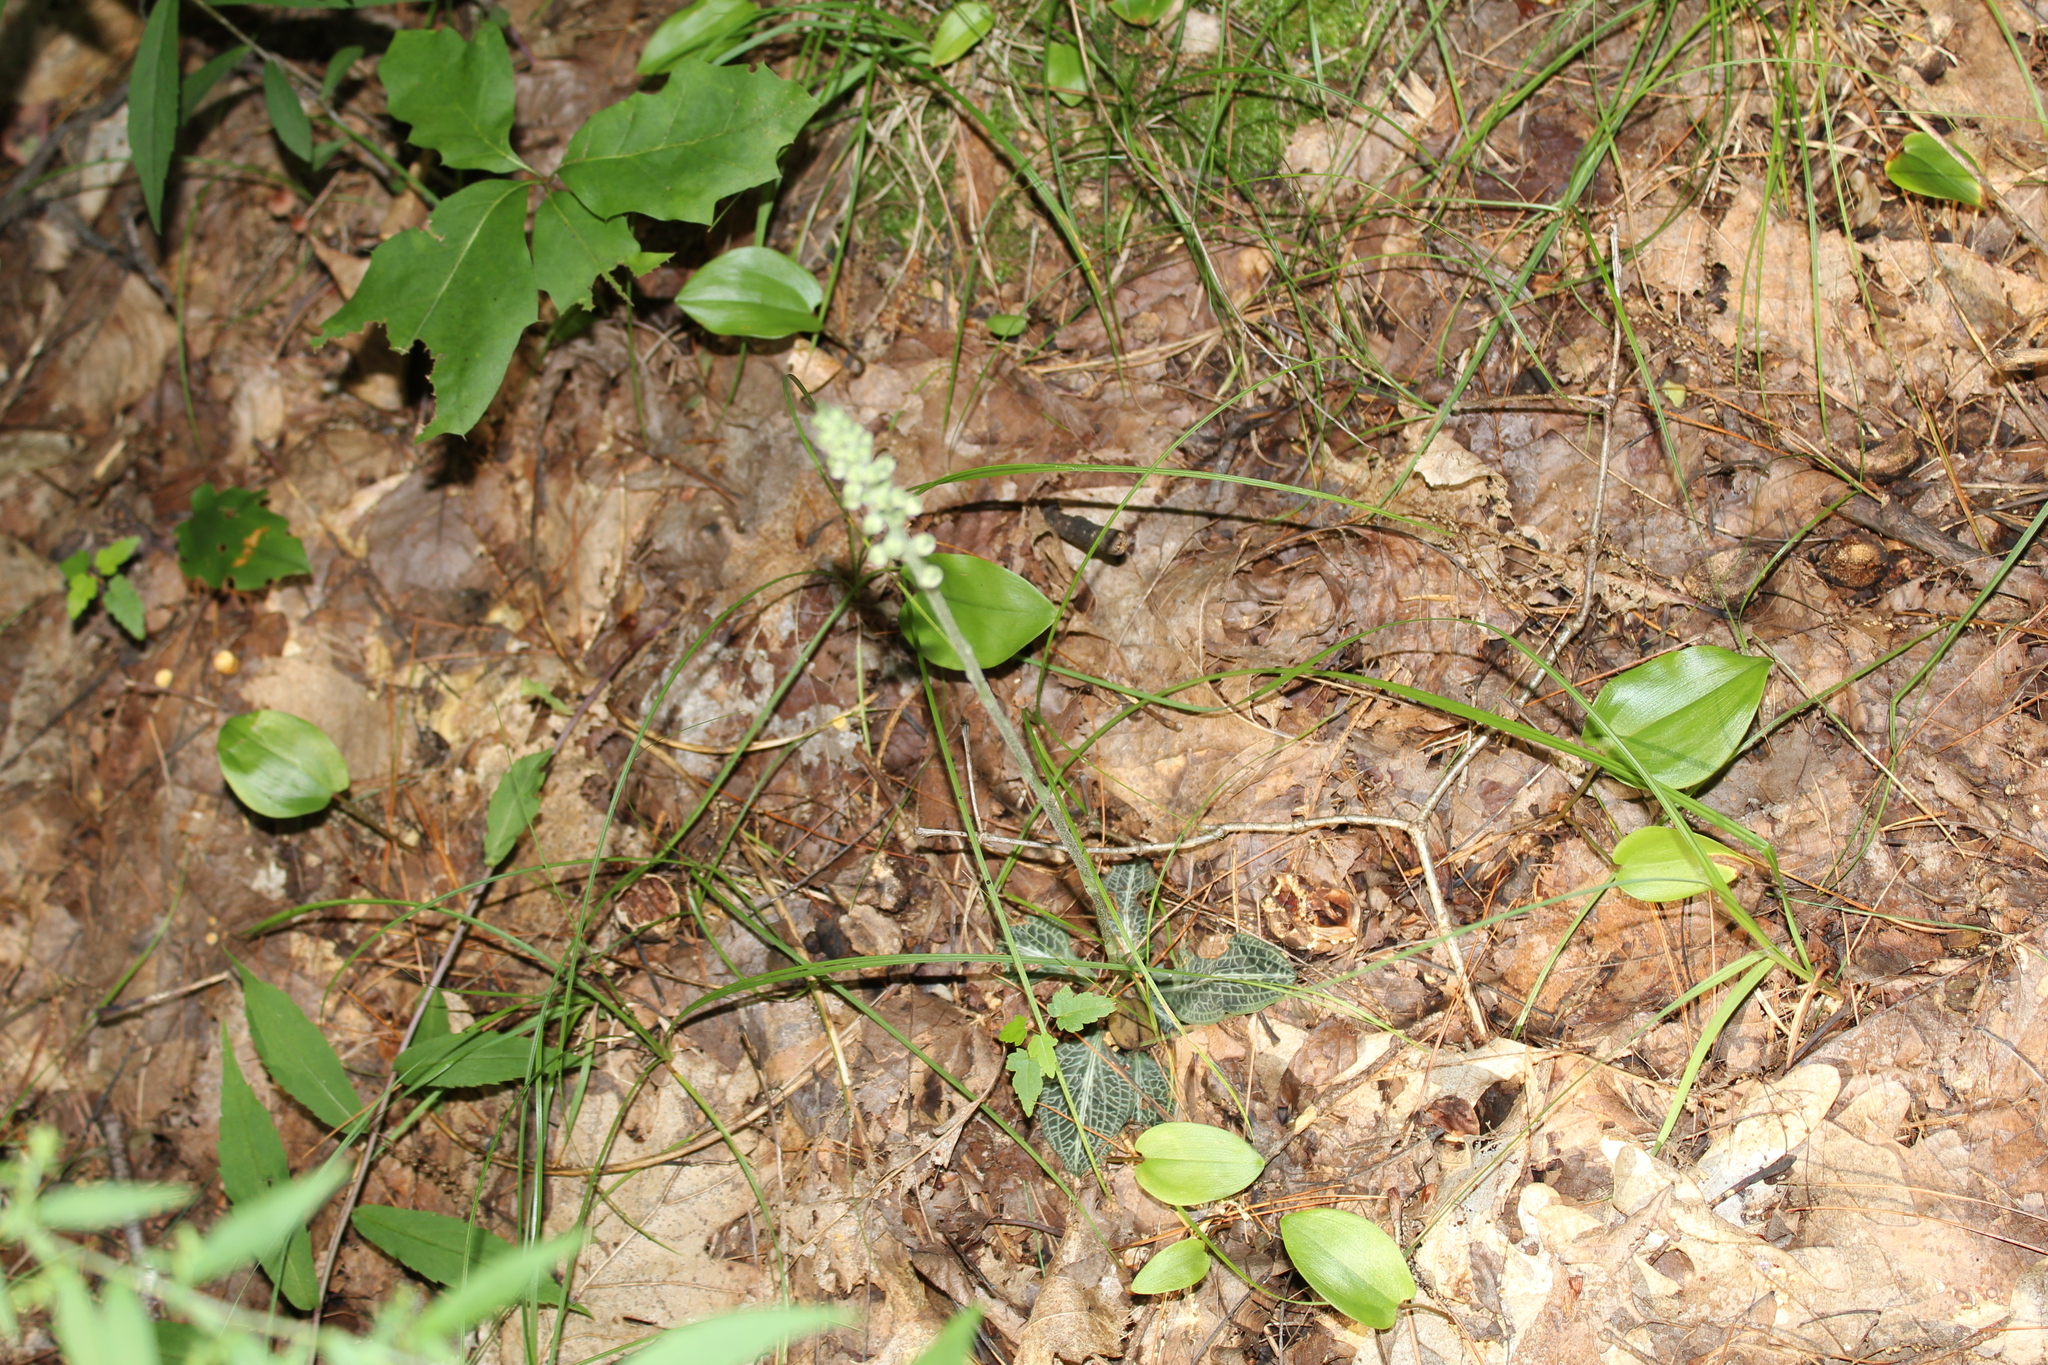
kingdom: Plantae
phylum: Tracheophyta
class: Liliopsida
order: Asparagales
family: Orchidaceae
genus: Goodyera
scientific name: Goodyera pubescens
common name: Downy rattlesnake-plantain
